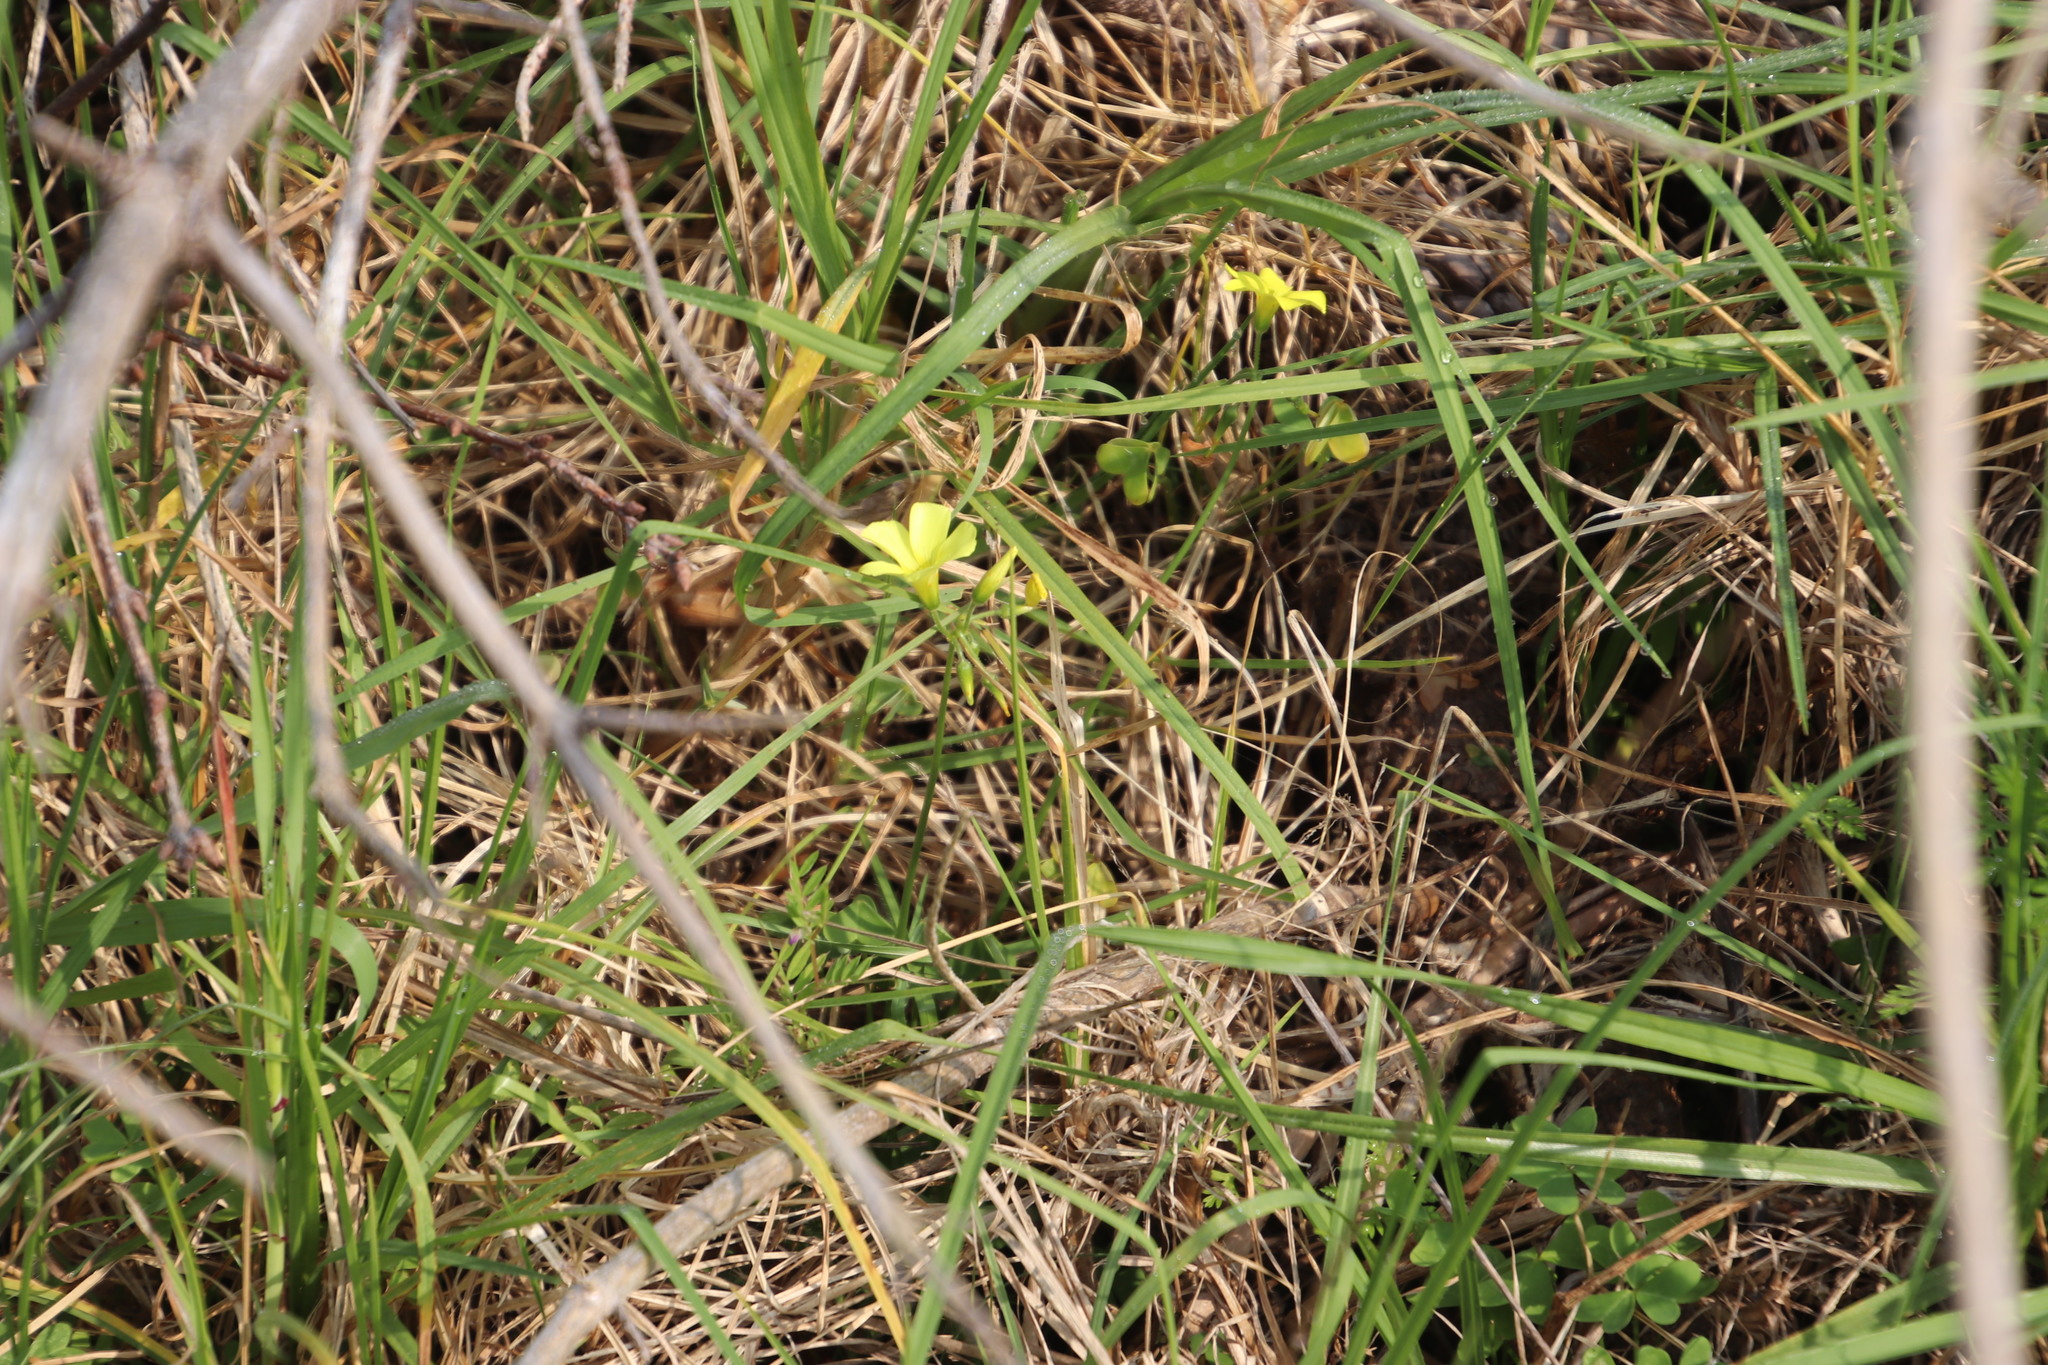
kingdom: Plantae
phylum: Tracheophyta
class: Magnoliopsida
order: Oxalidales
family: Oxalidaceae
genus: Oxalis
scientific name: Oxalis pes-caprae
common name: Bermuda-buttercup
